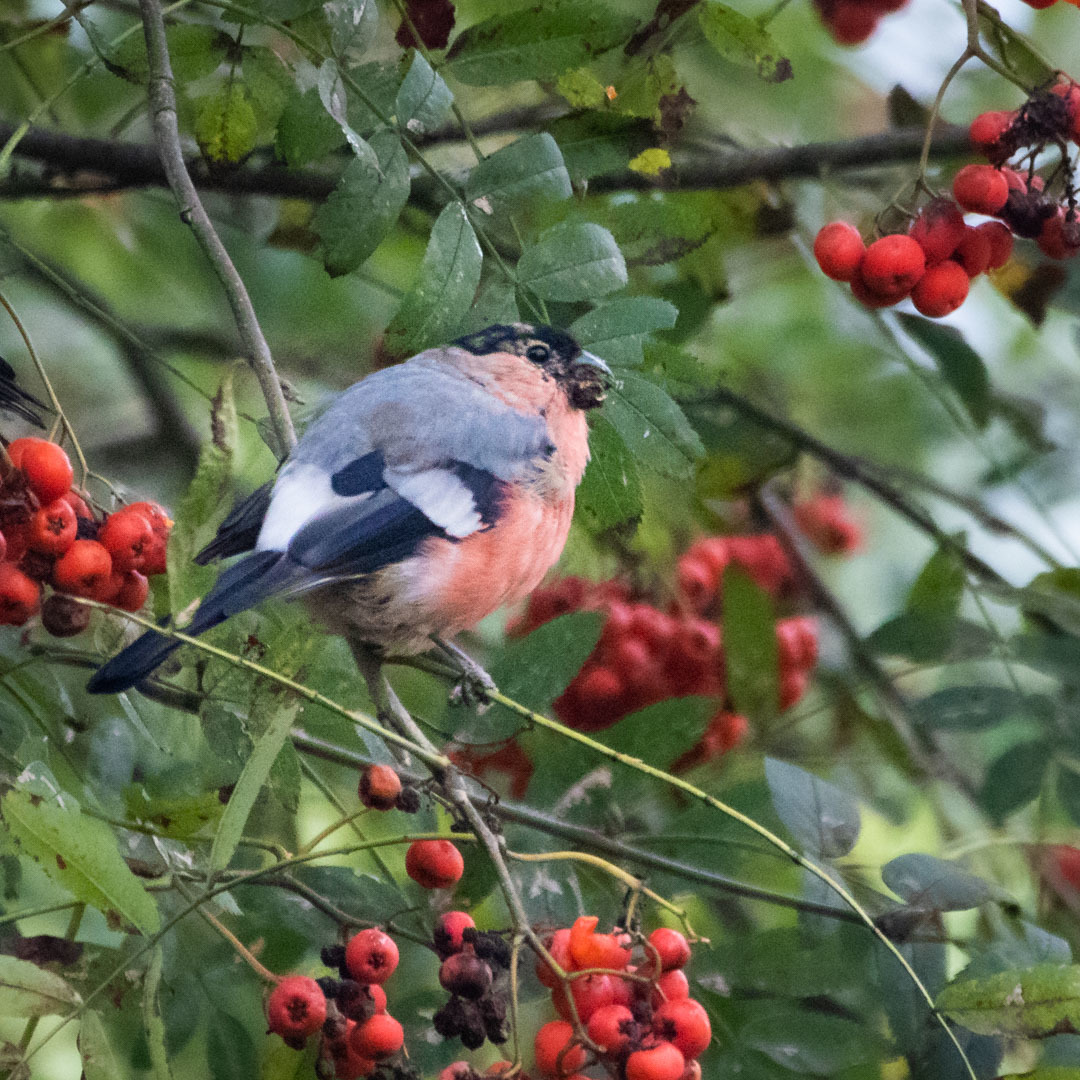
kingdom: Animalia
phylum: Chordata
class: Aves
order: Passeriformes
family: Fringillidae
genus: Pyrrhula
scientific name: Pyrrhula pyrrhula
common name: Eurasian bullfinch
